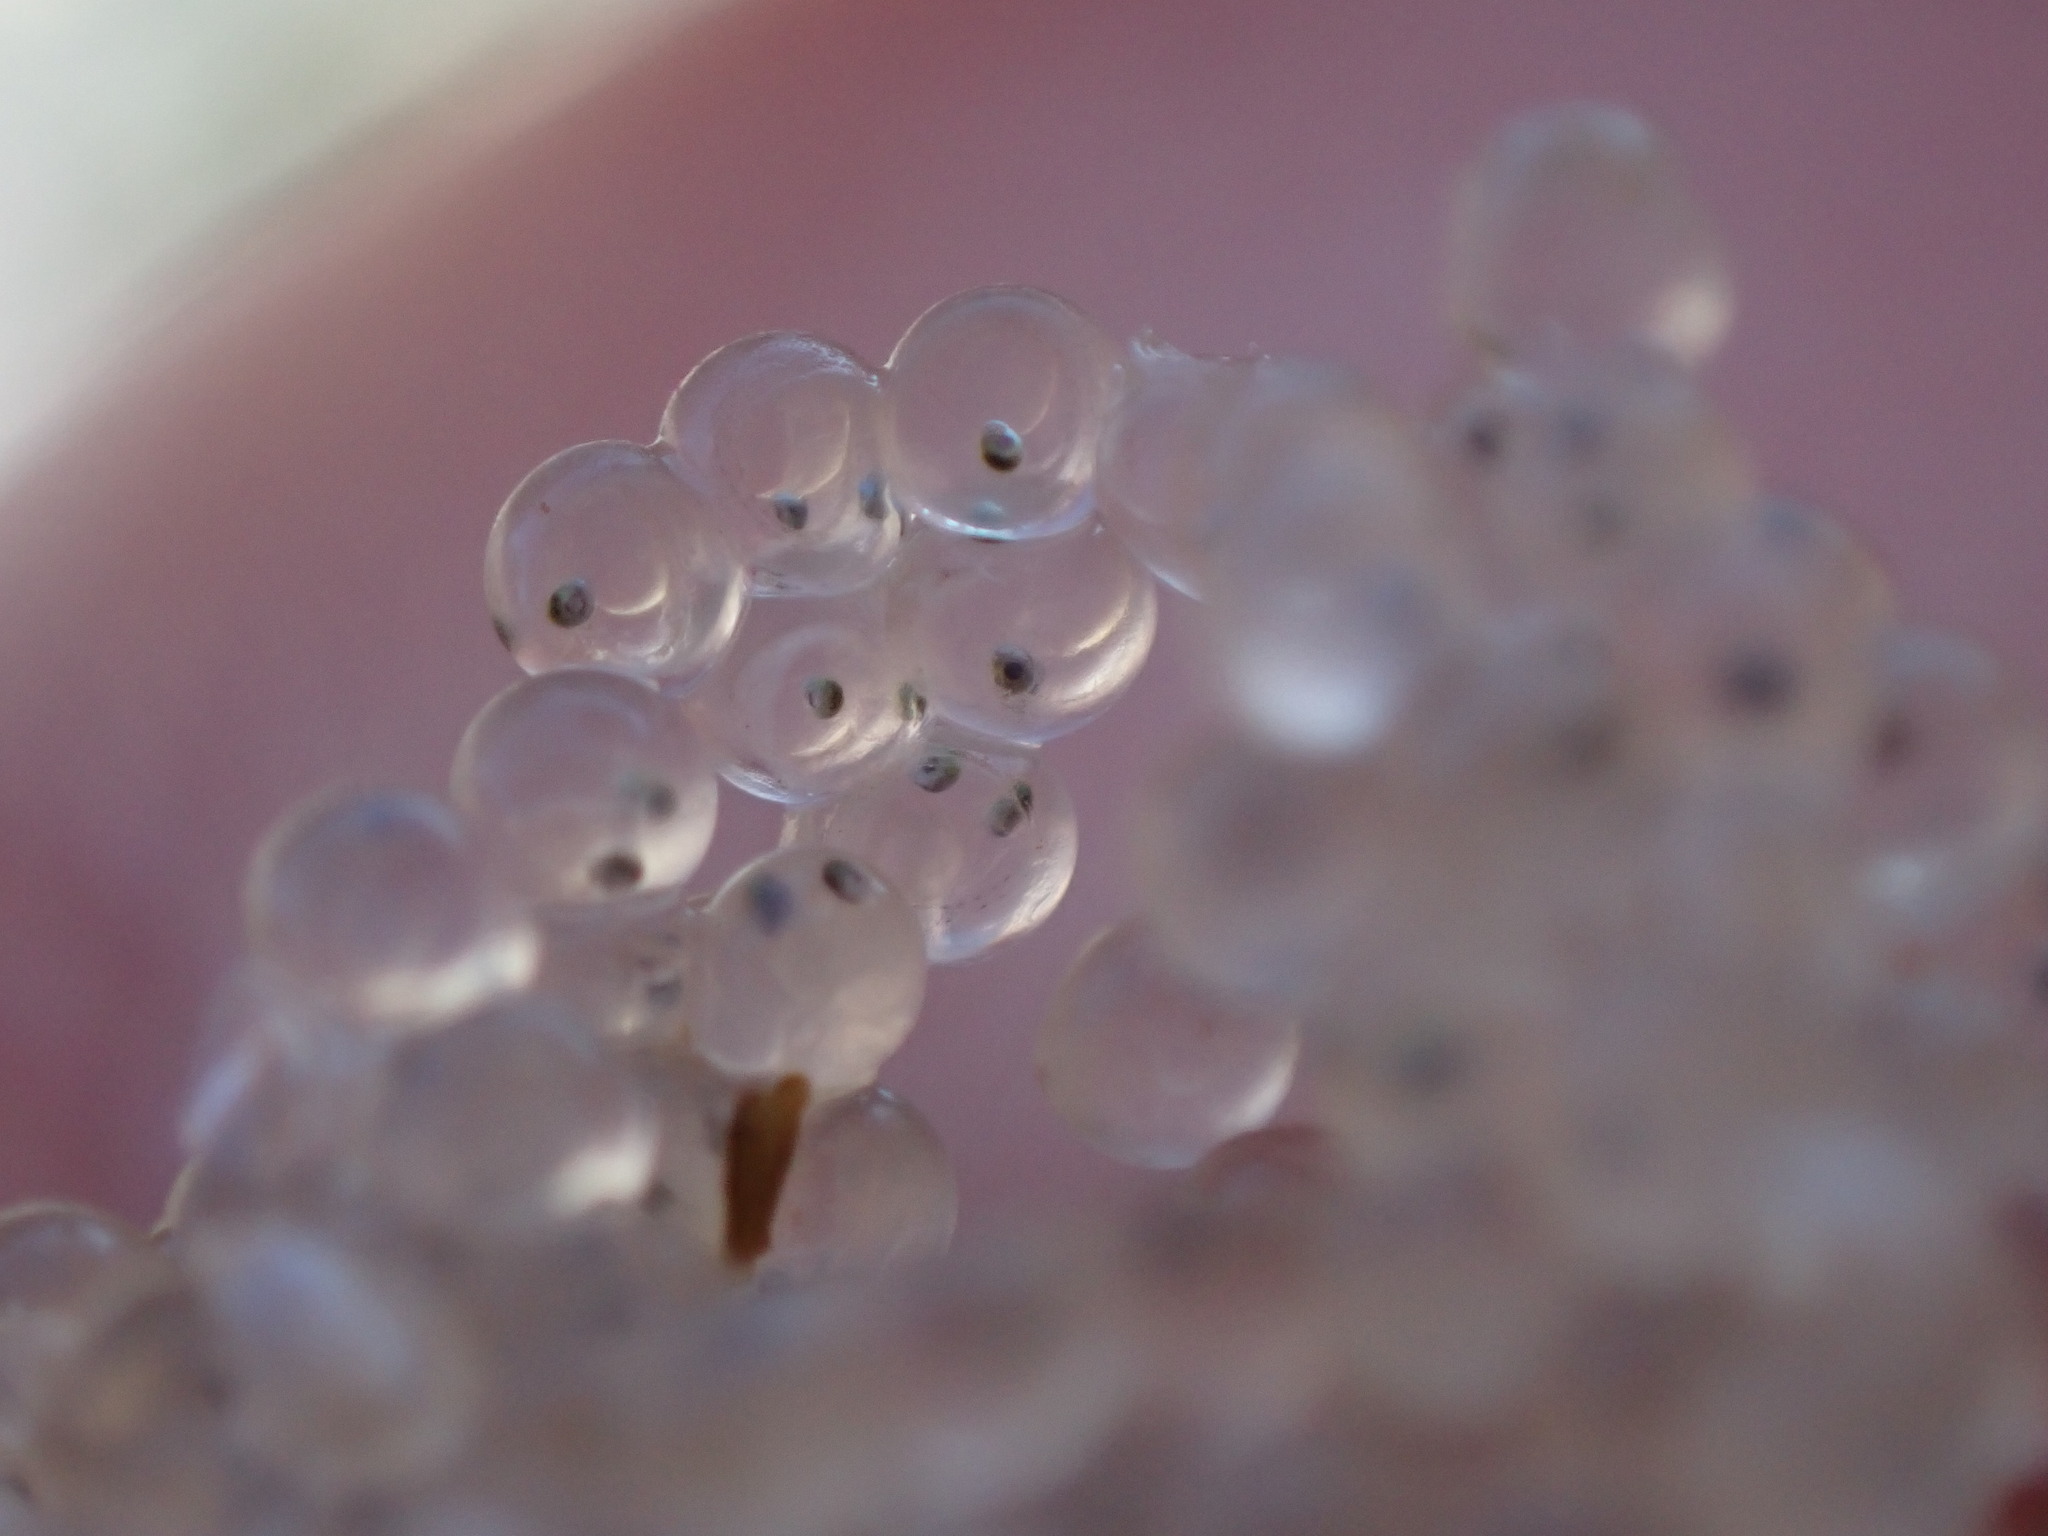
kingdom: Animalia
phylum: Chordata
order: Clupeiformes
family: Clupeidae
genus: Clupea
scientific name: Clupea pallasii
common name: Pacific herring
